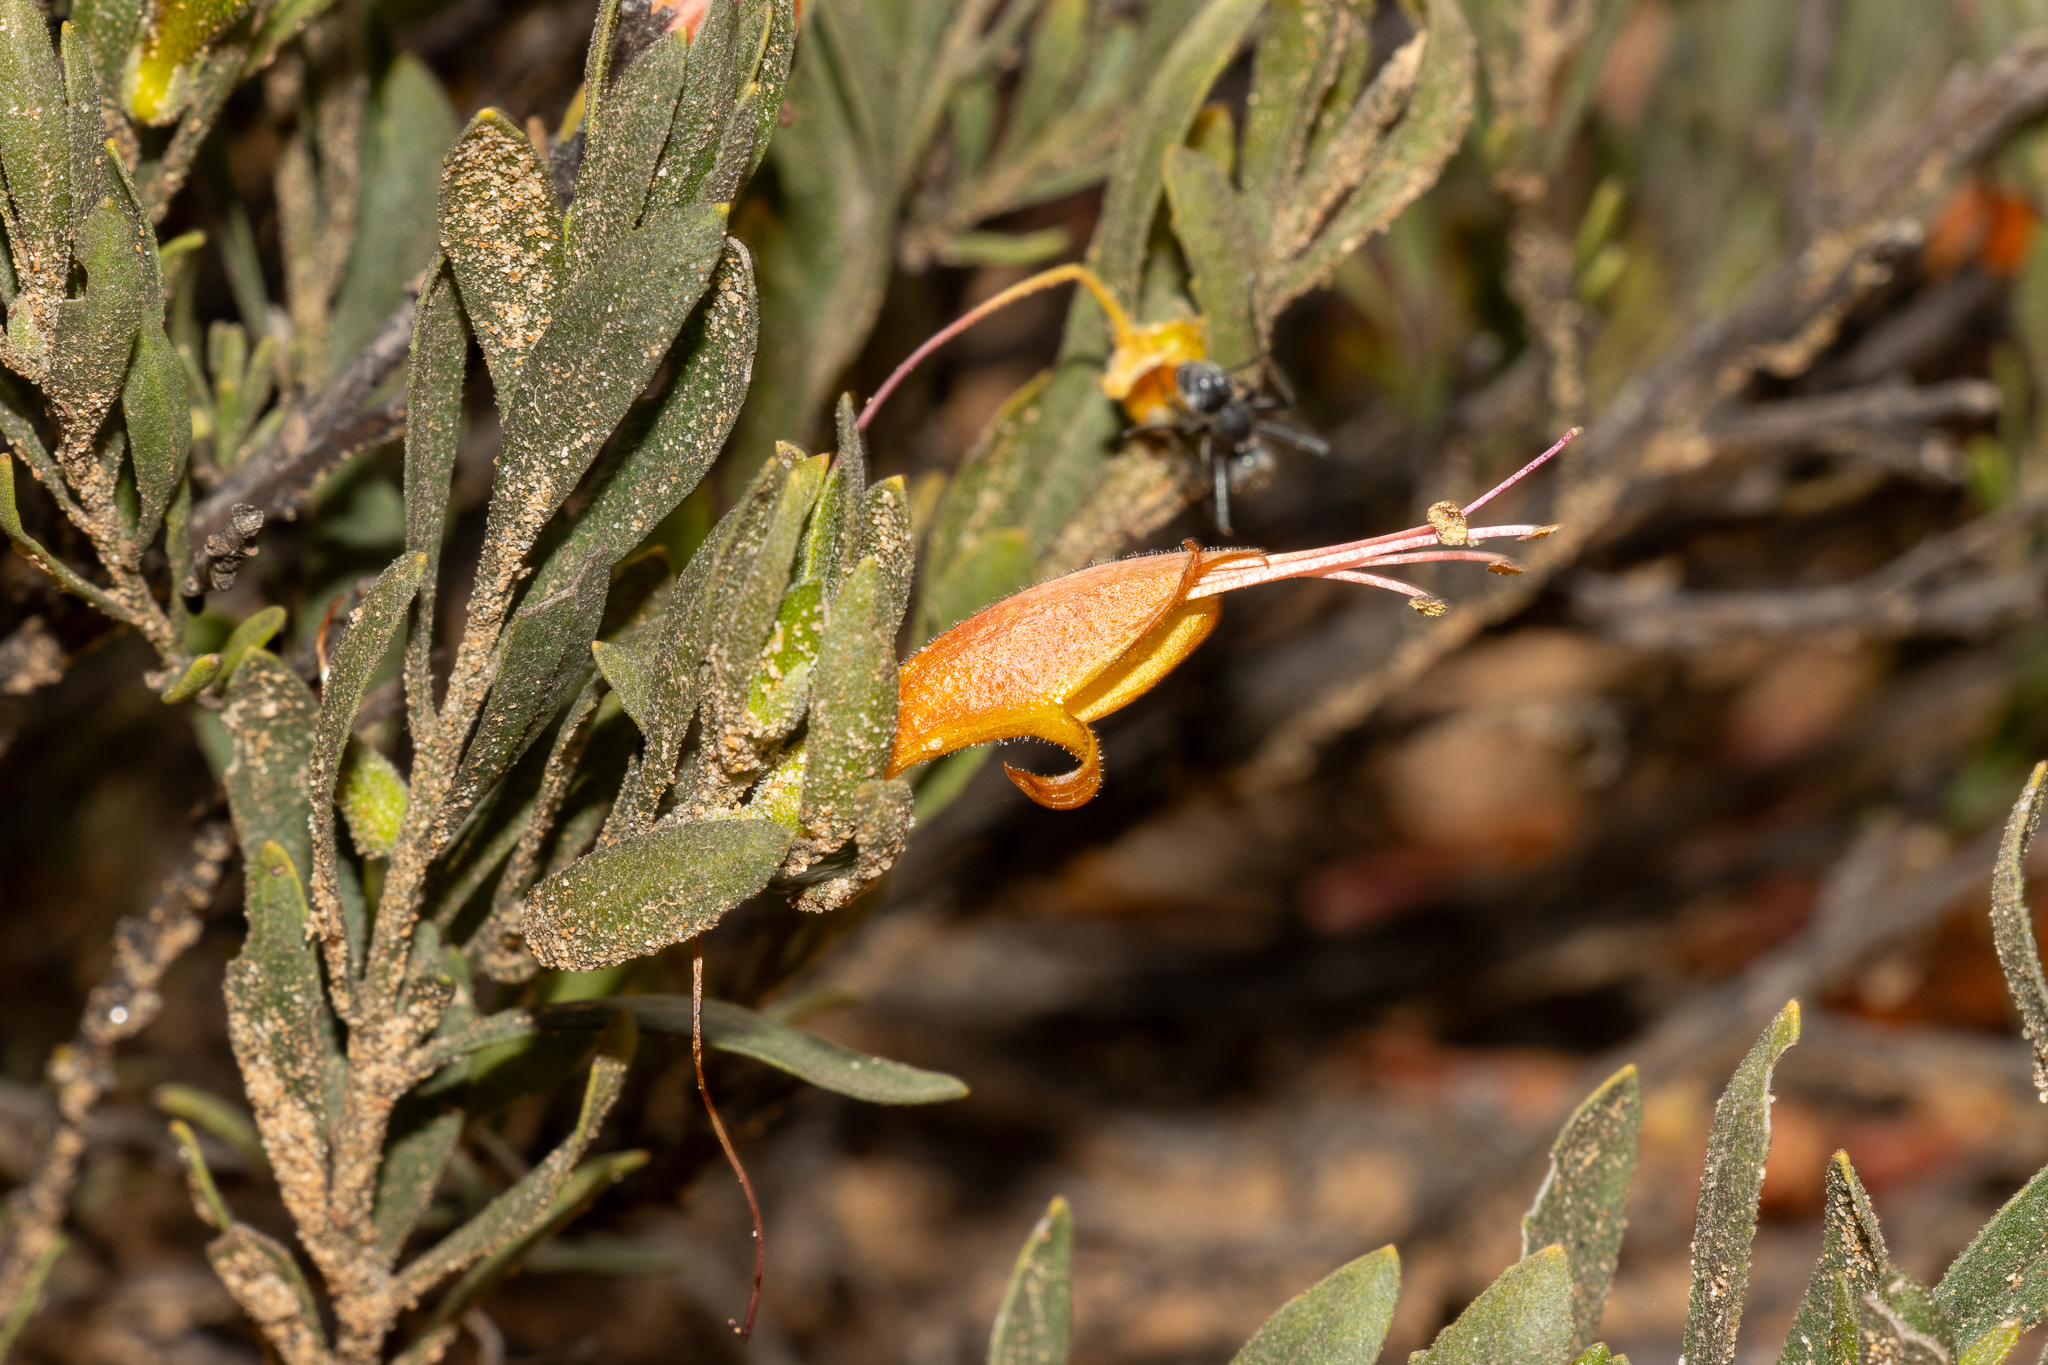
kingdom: Plantae
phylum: Tracheophyta
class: Magnoliopsida
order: Lamiales
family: Scrophulariaceae
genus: Eremophila
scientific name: Eremophila glabra
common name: Black-fuchsia
